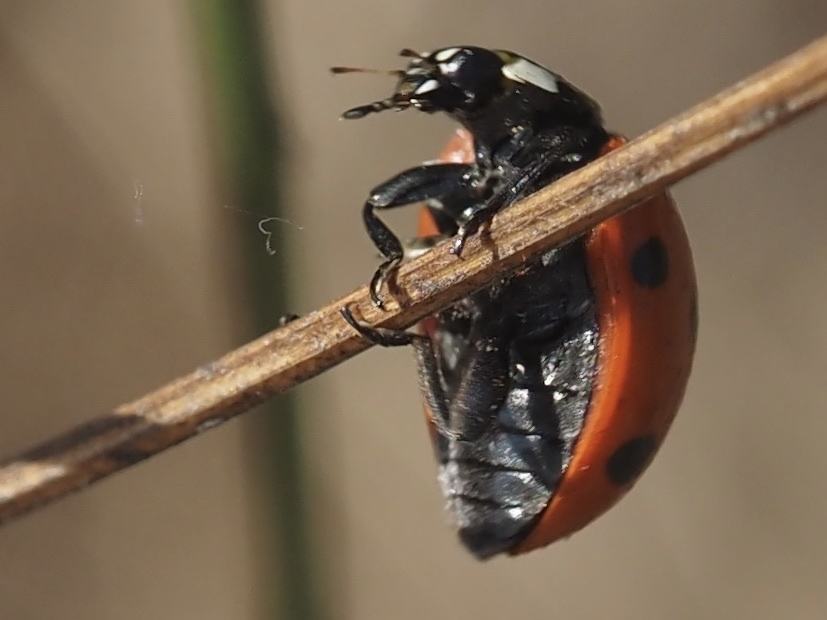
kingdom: Animalia
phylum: Arthropoda
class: Insecta
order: Coleoptera
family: Coccinellidae
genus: Coccinella
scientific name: Coccinella septempunctata
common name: Sevenspotted lady beetle
